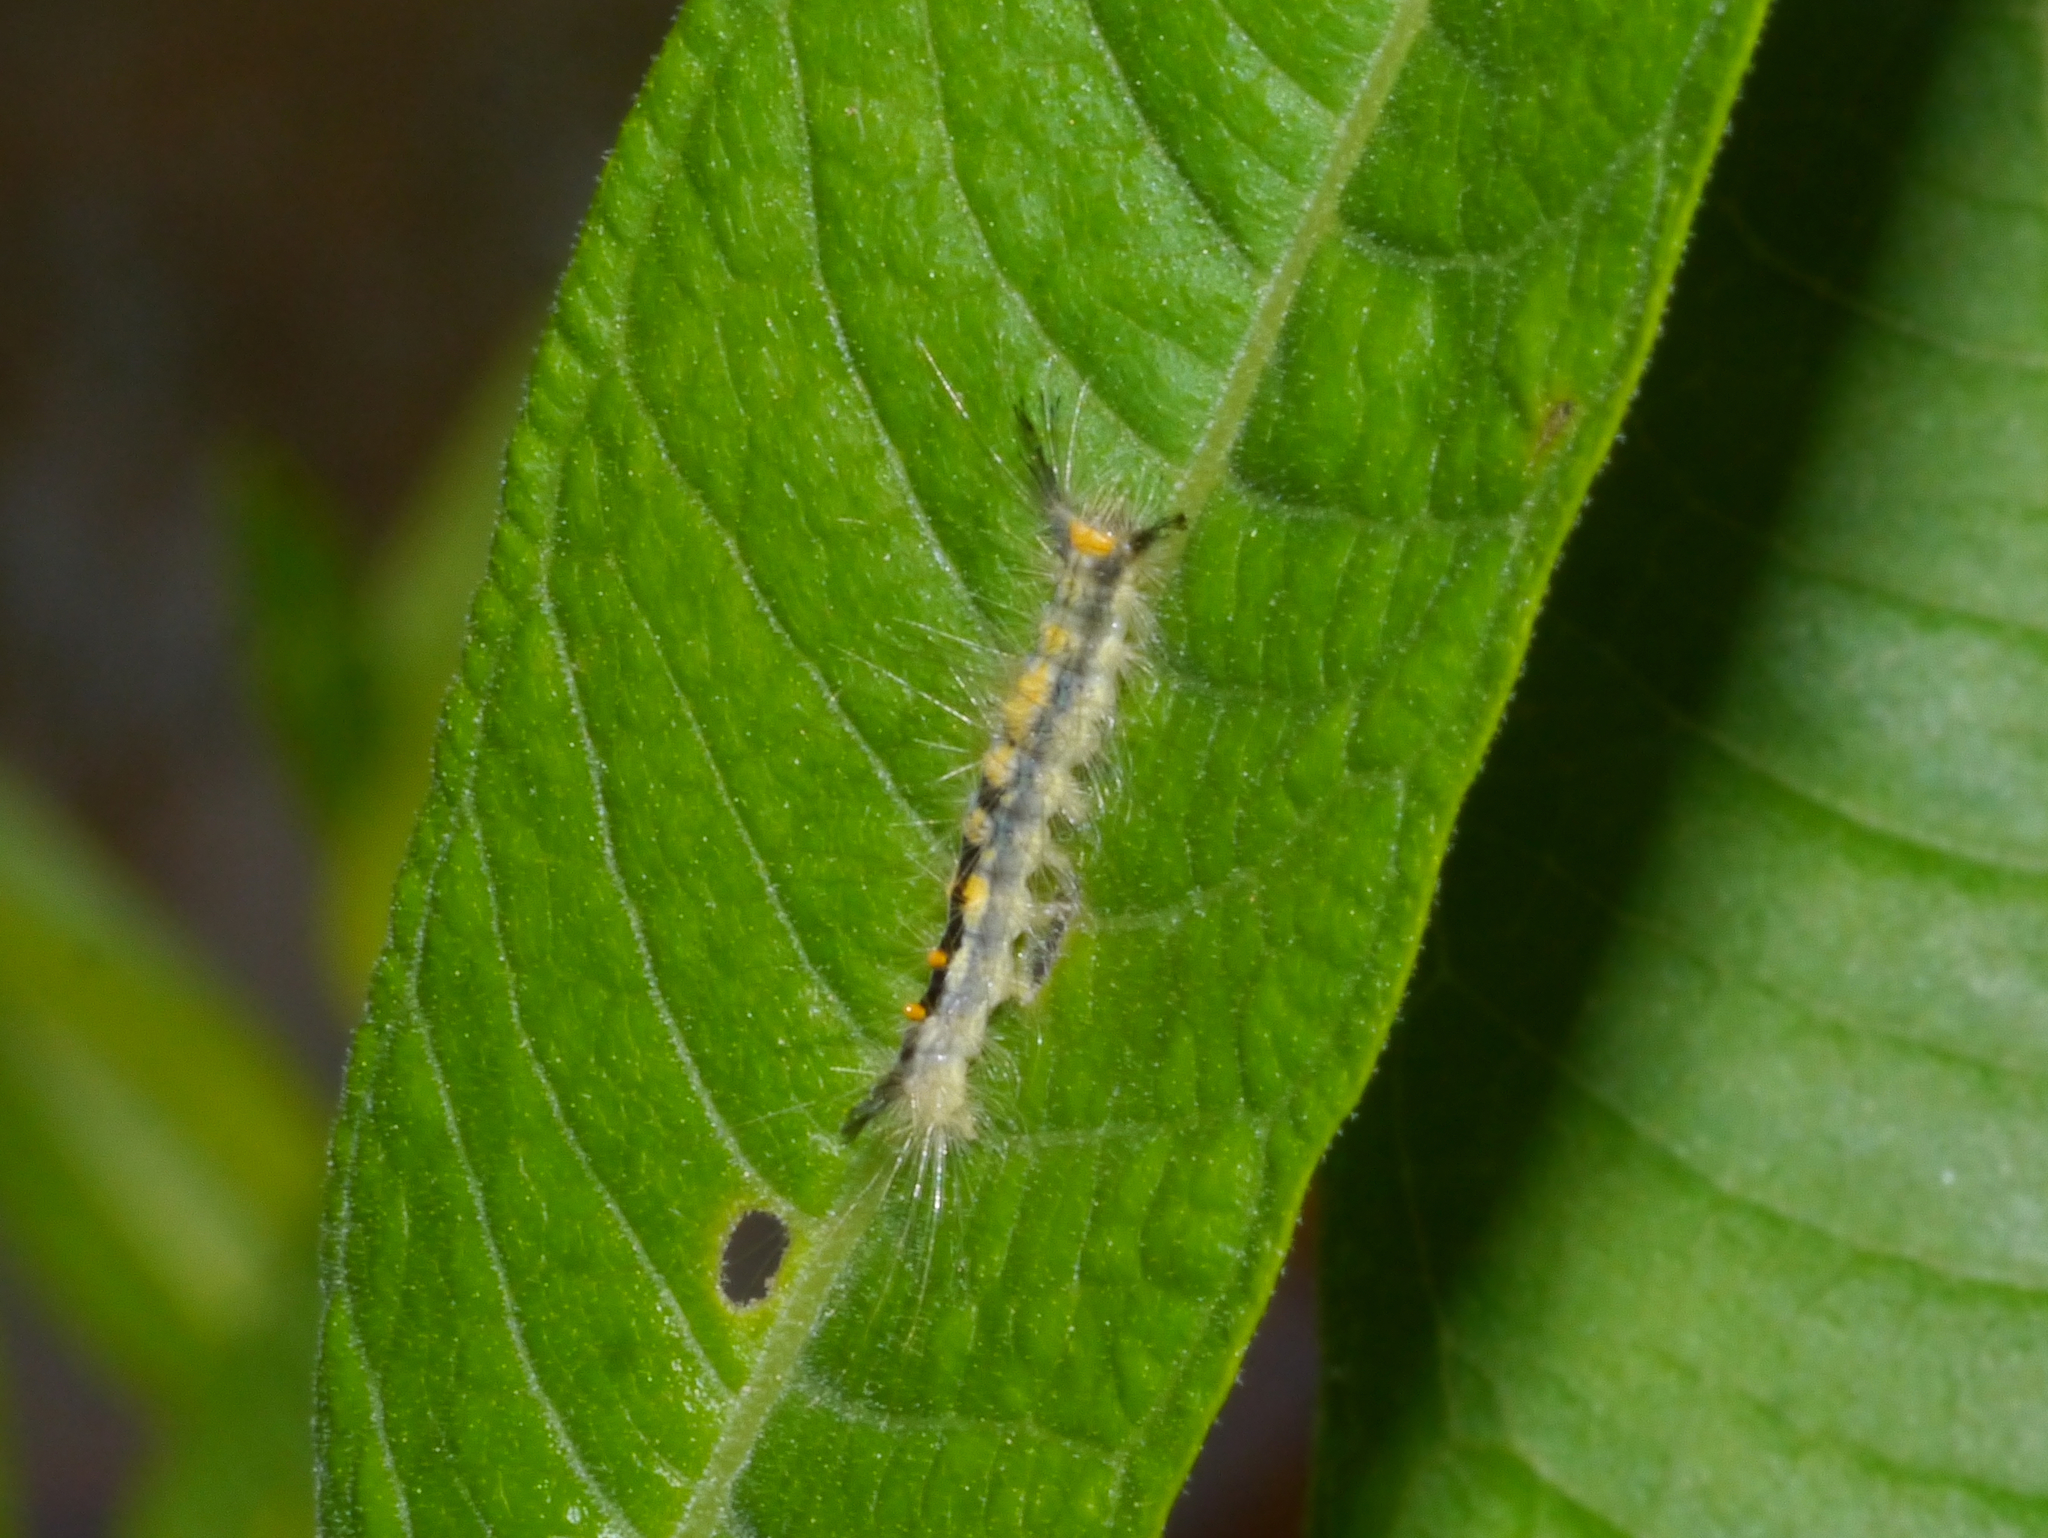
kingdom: Animalia
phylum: Arthropoda
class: Insecta
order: Lepidoptera
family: Erebidae
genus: Orgyia
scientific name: Orgyia leucostigma
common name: White-marked tussock moth
